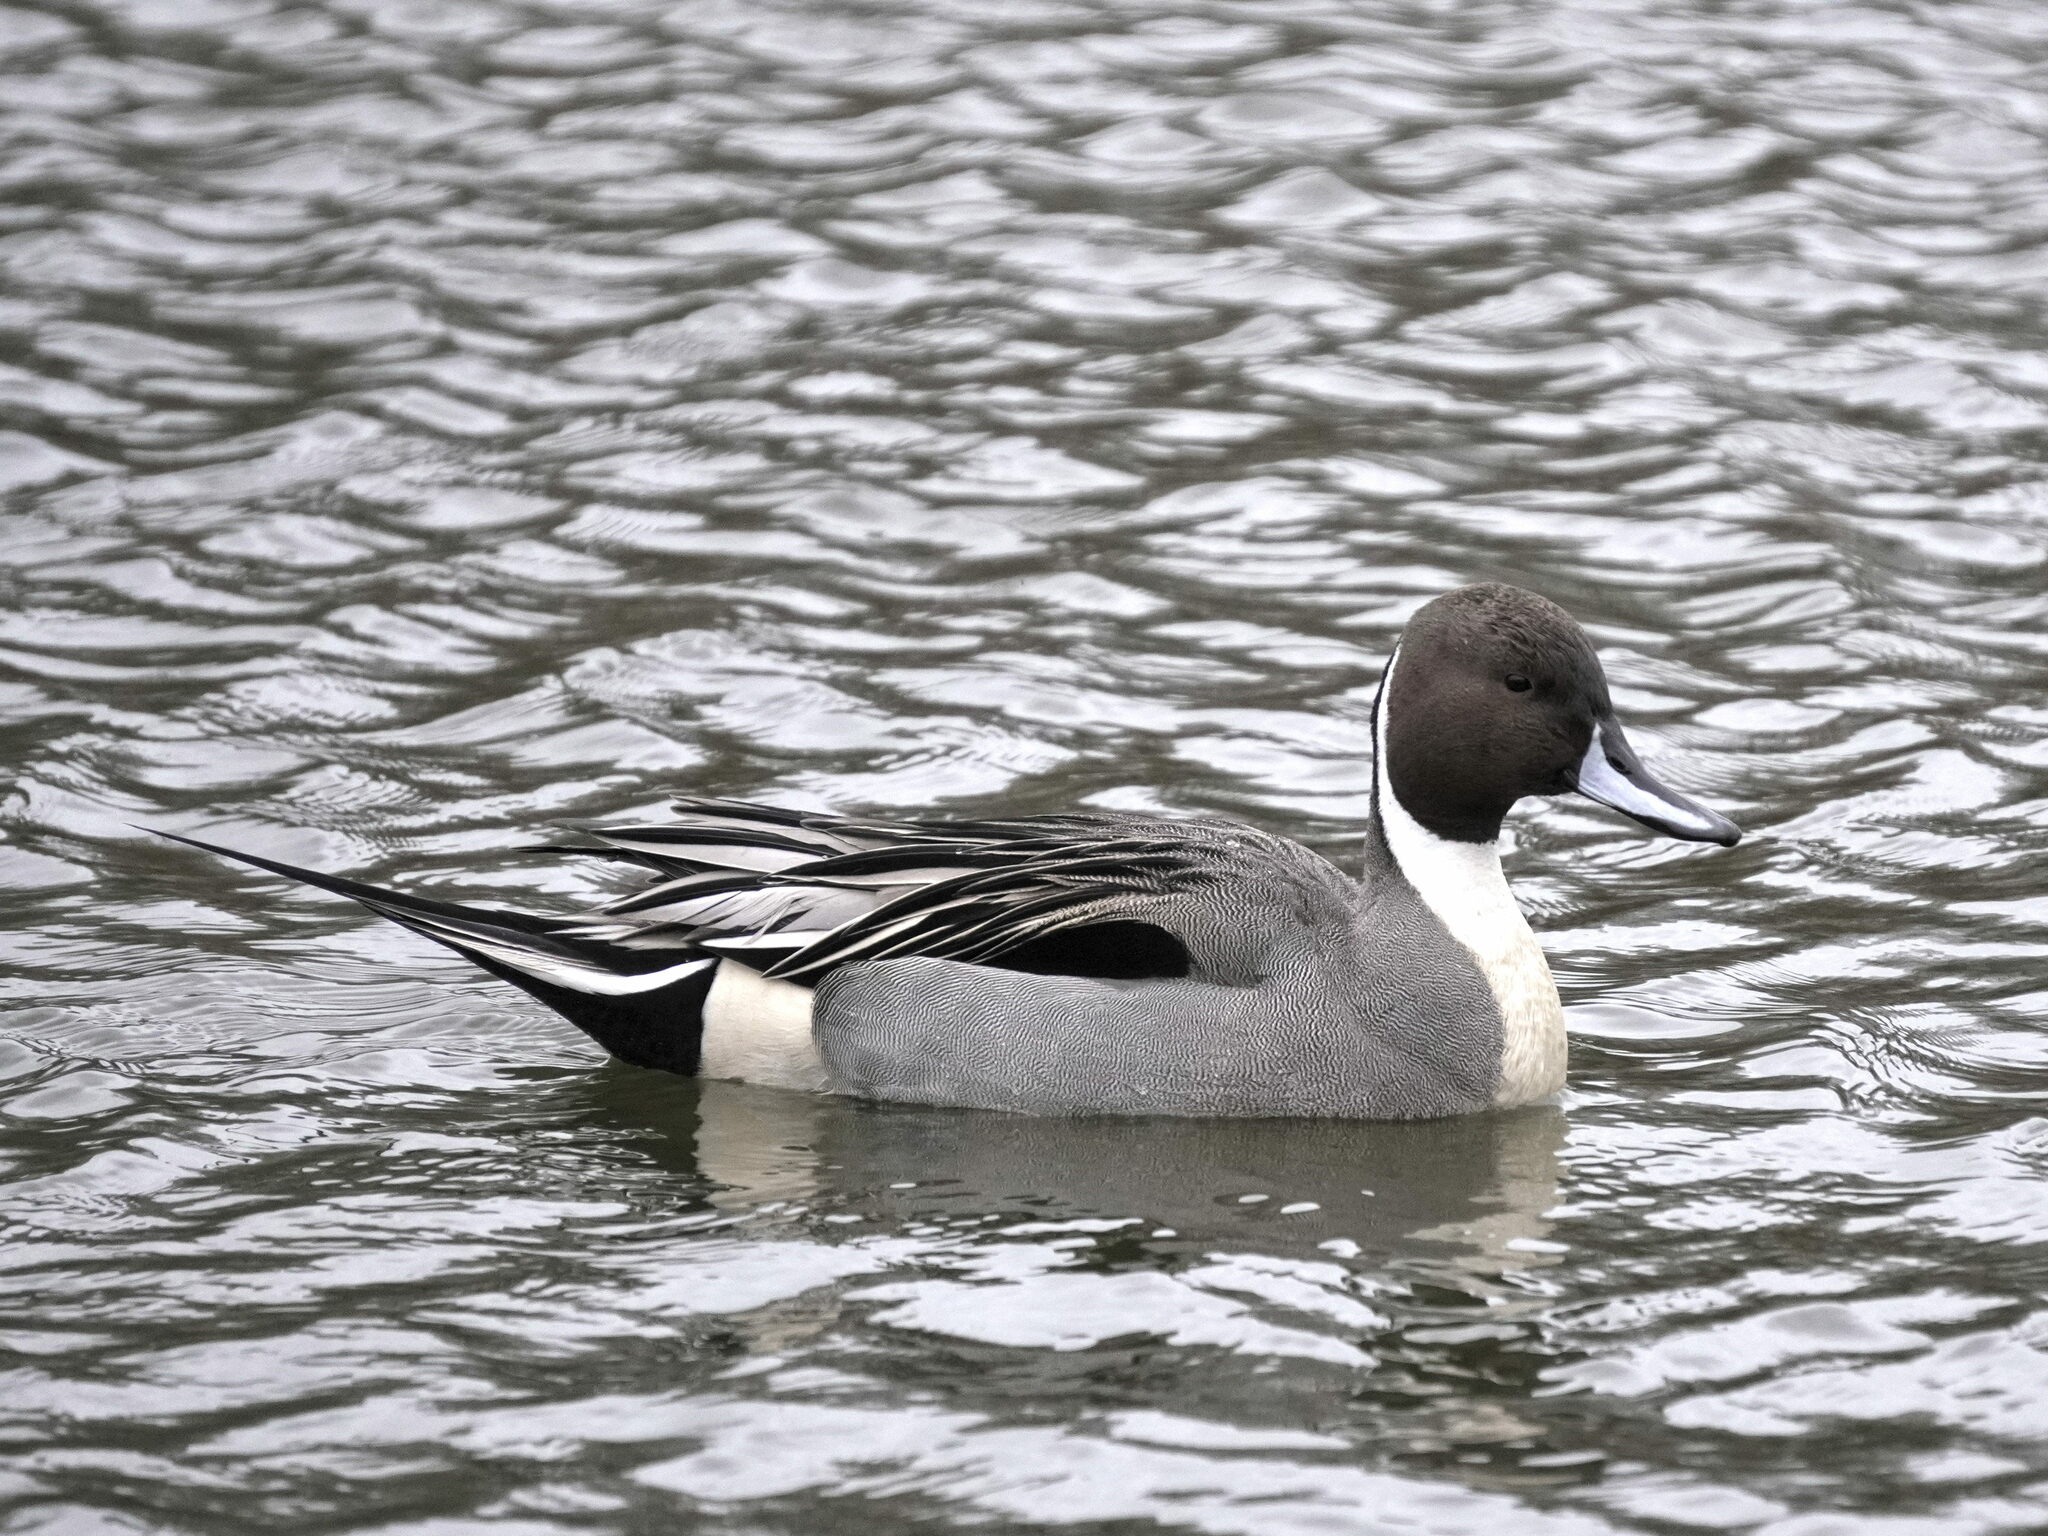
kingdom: Animalia
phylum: Chordata
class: Aves
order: Anseriformes
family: Anatidae
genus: Anas
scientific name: Anas acuta
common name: Northern pintail
